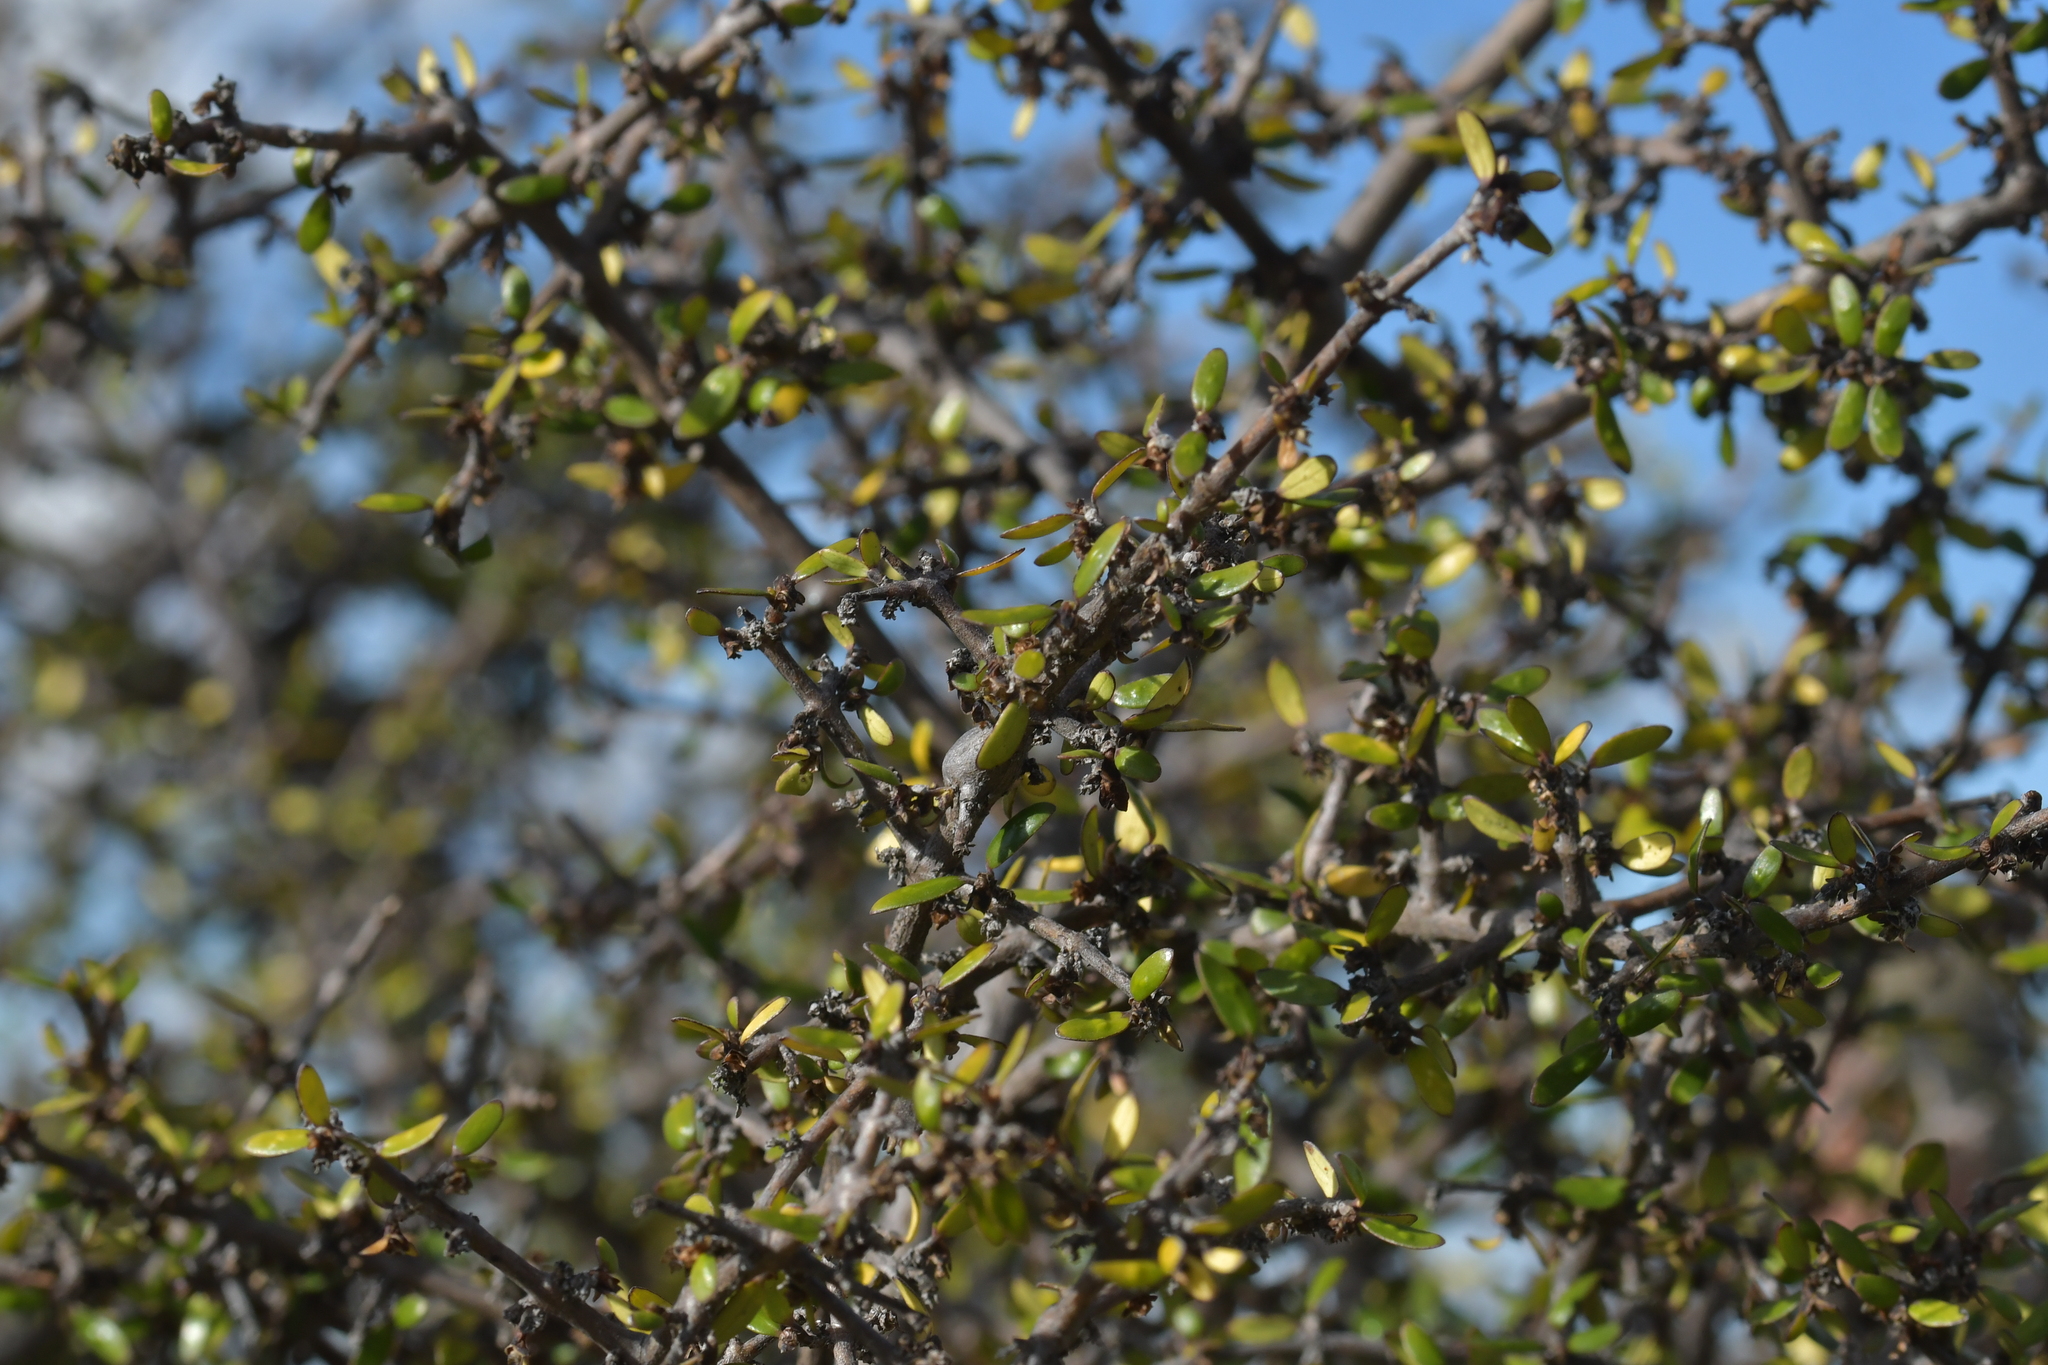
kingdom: Plantae
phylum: Tracheophyta
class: Magnoliopsida
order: Gentianales
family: Rubiaceae
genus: Coprosma
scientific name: Coprosma propinqua
